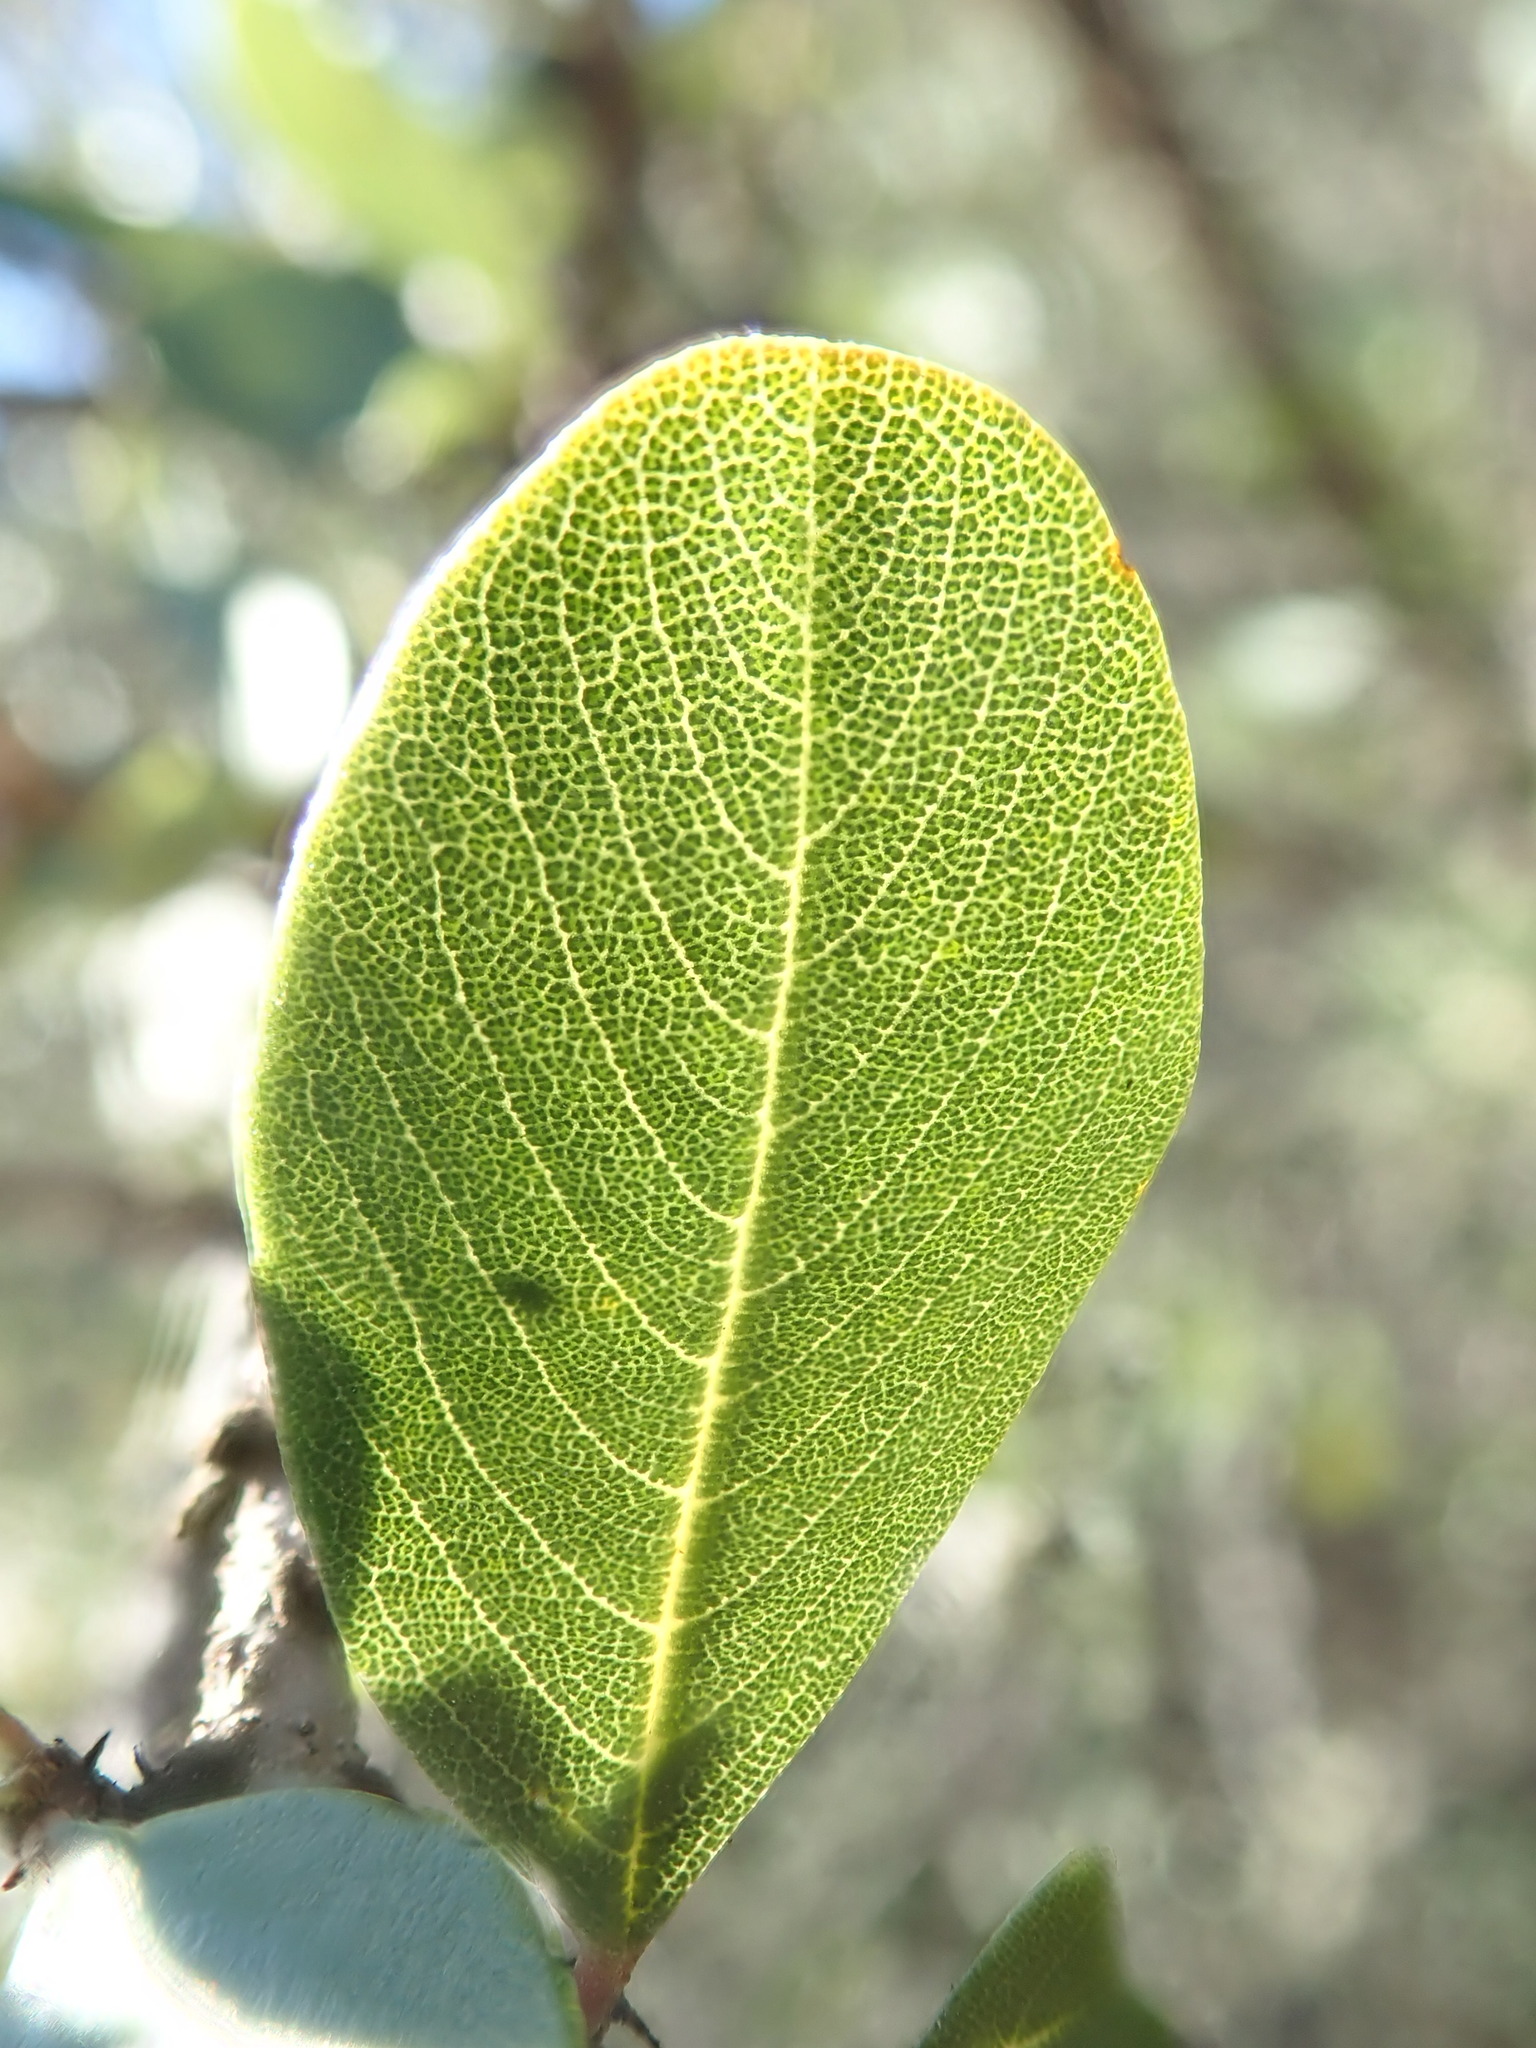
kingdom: Plantae
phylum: Tracheophyta
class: Magnoliopsida
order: Rosales
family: Rhamnaceae
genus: Ceanothus
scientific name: Ceanothus cuneatus
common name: Cuneate ceanothus
